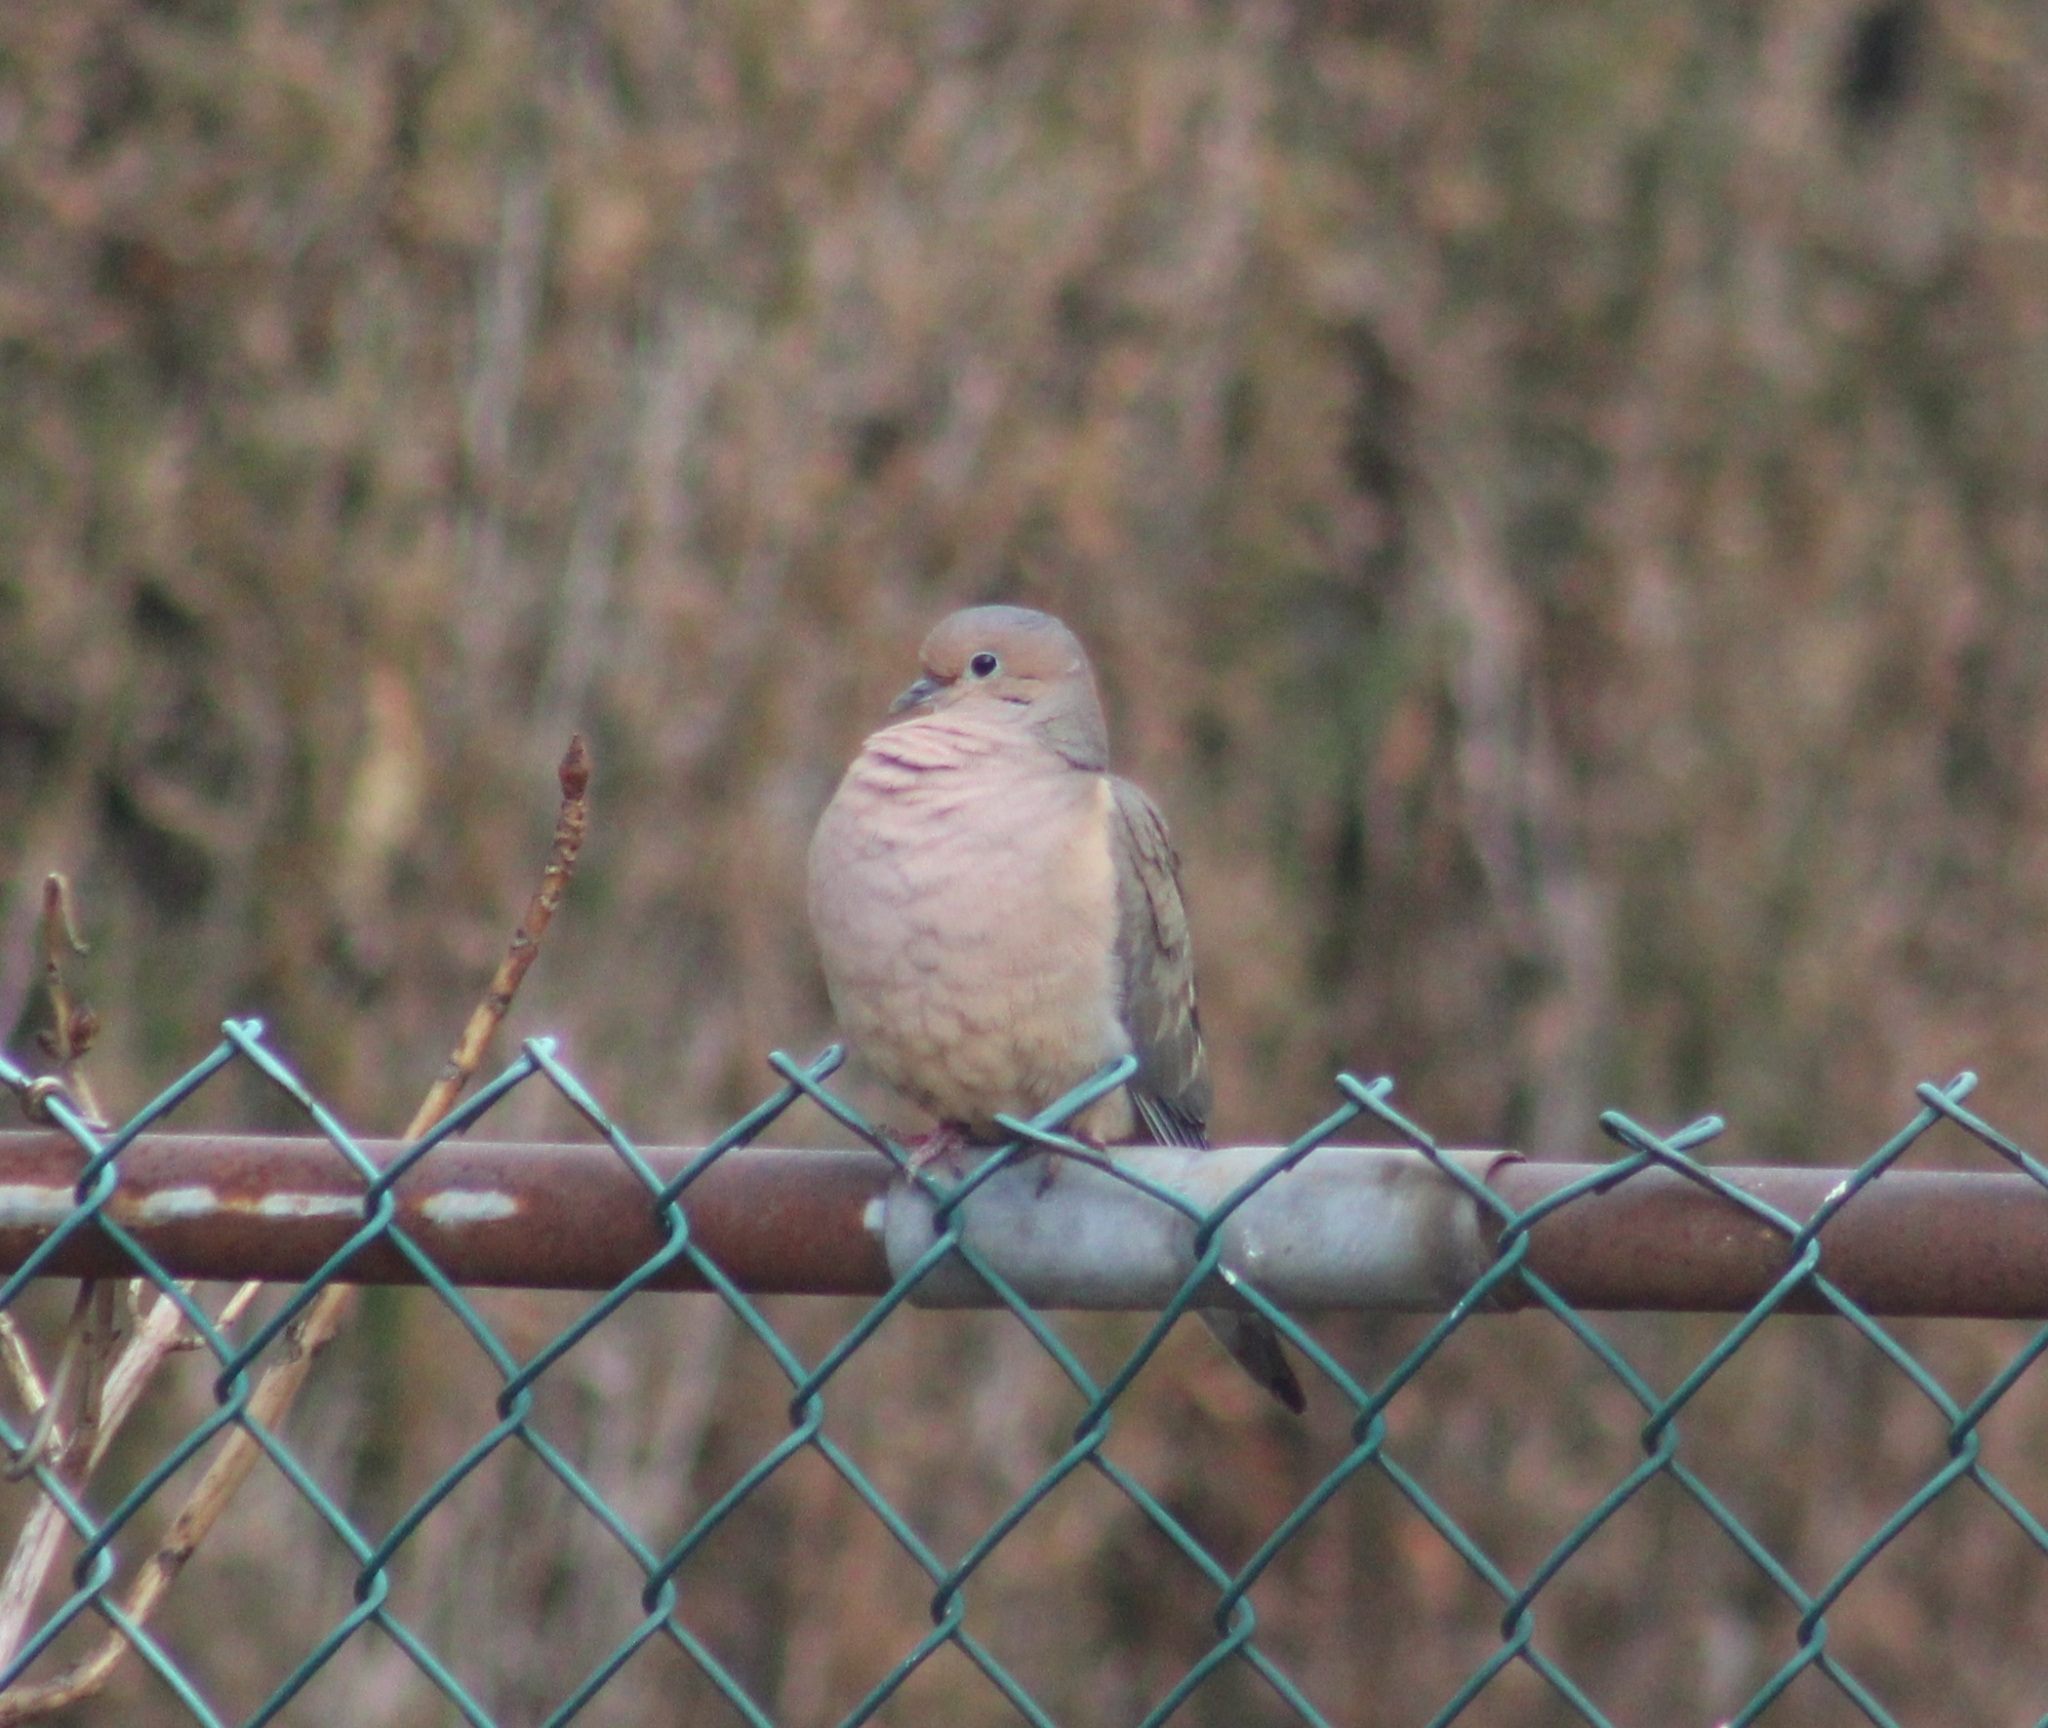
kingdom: Animalia
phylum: Chordata
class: Aves
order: Columbiformes
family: Columbidae
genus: Zenaida
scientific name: Zenaida macroura
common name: Mourning dove
